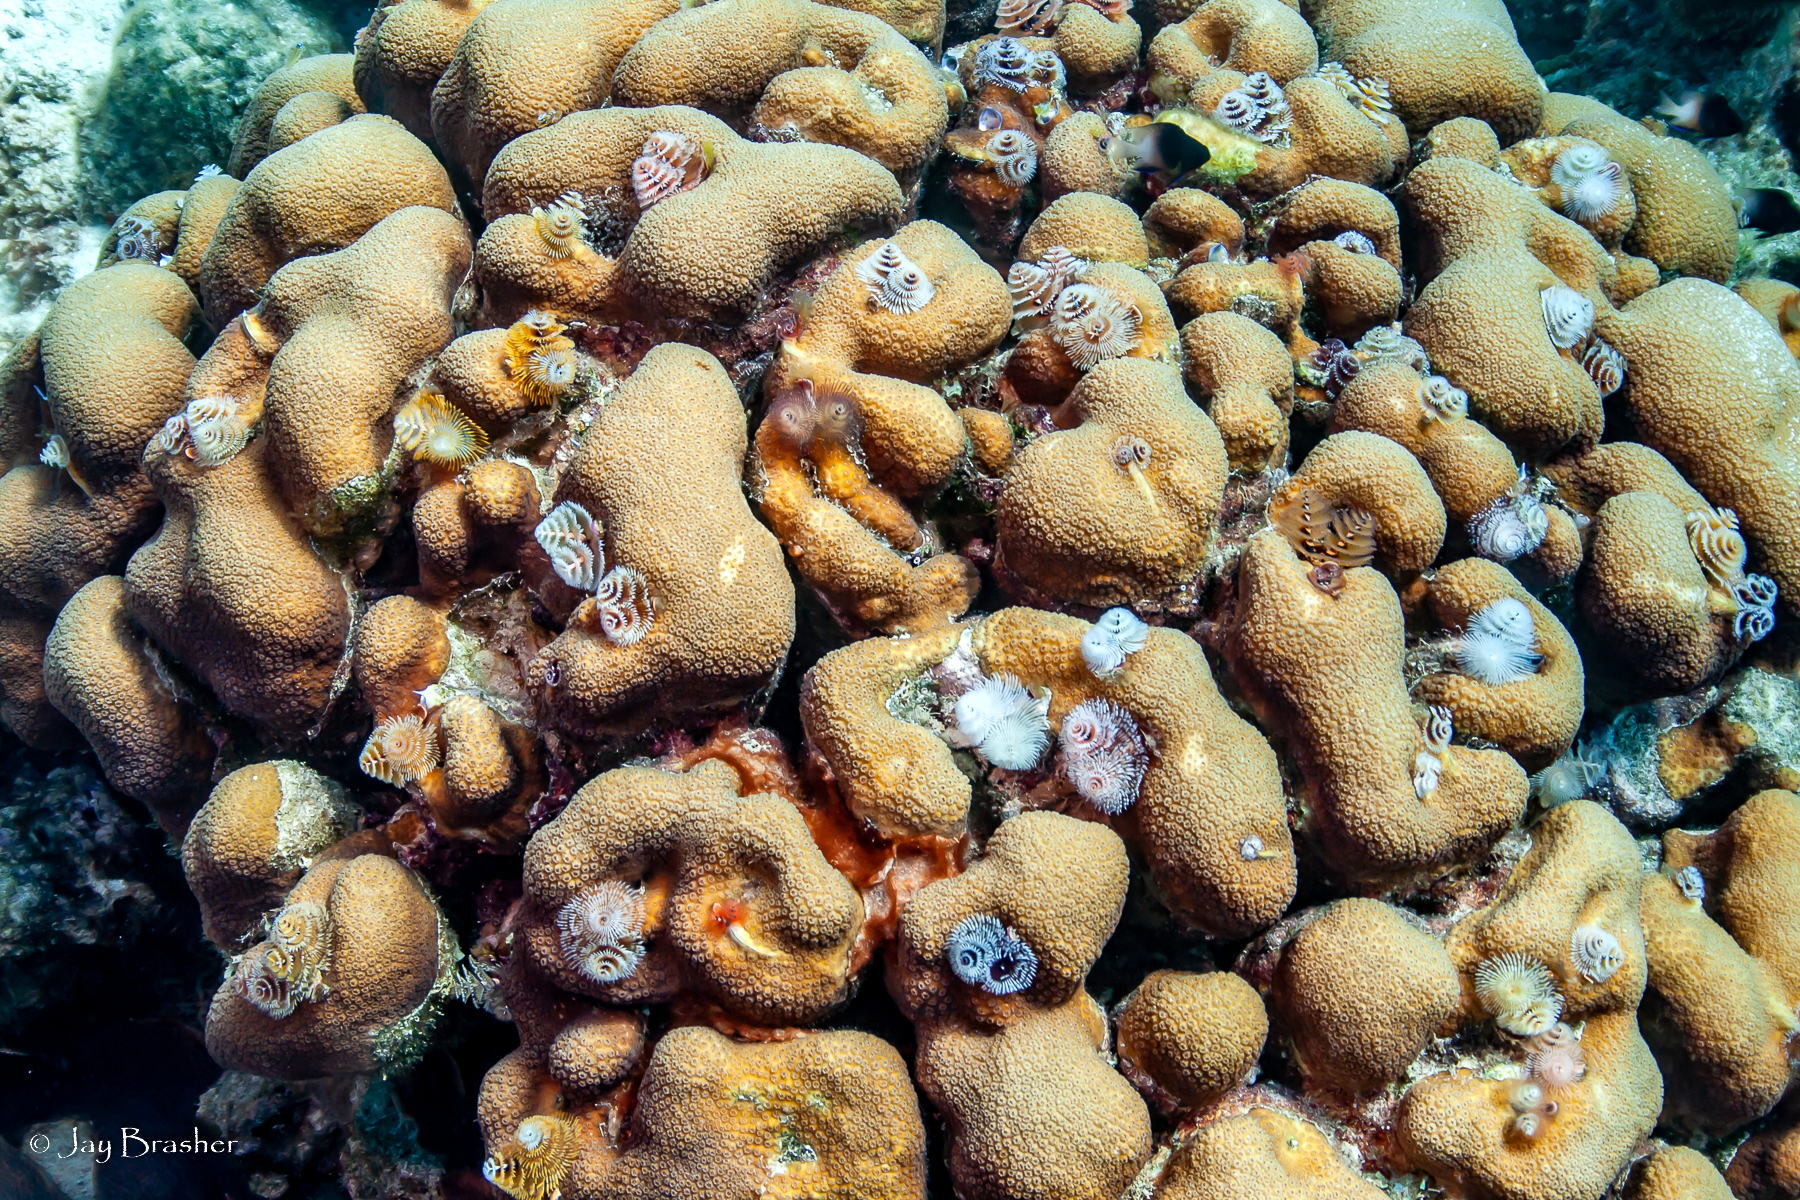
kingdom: Animalia
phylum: Cnidaria
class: Anthozoa
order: Scleractinia
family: Merulinidae
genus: Orbicella
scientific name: Orbicella annularis
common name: Boulder star coral
